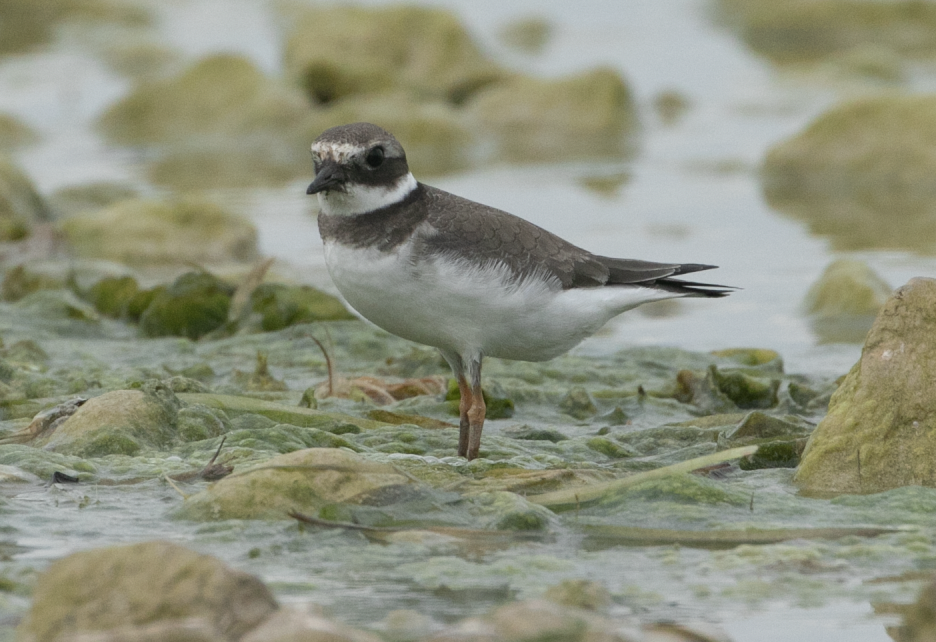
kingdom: Animalia
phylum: Chordata
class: Aves
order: Charadriiformes
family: Charadriidae
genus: Charadrius
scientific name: Charadrius hiaticula
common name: Common ringed plover
